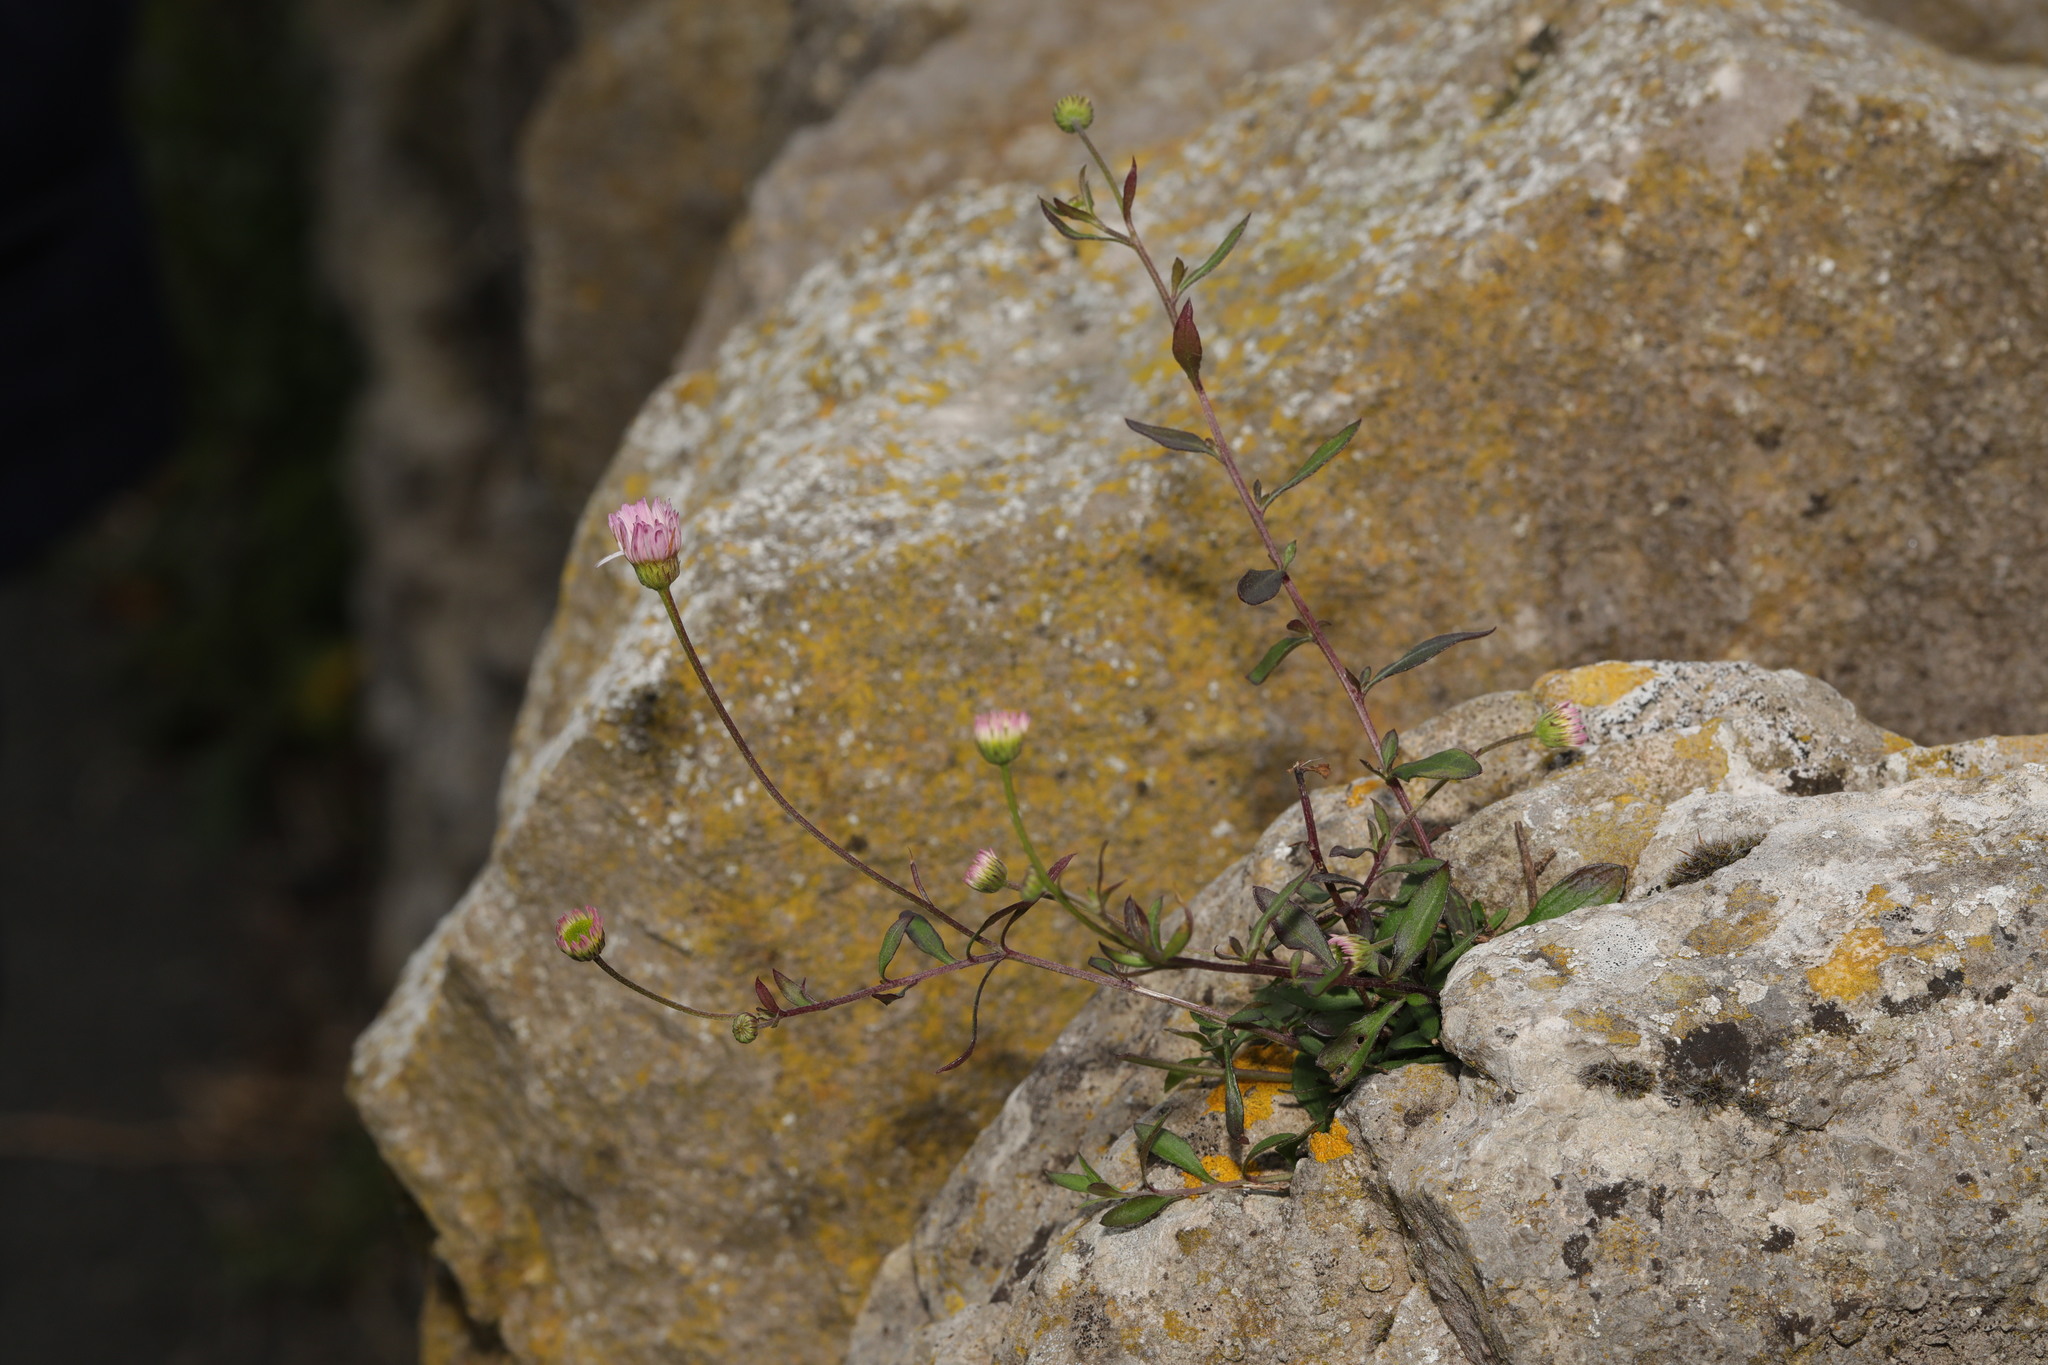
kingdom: Plantae
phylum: Tracheophyta
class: Magnoliopsida
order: Asterales
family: Asteraceae
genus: Erigeron
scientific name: Erigeron karvinskianus
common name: Mexican fleabane
